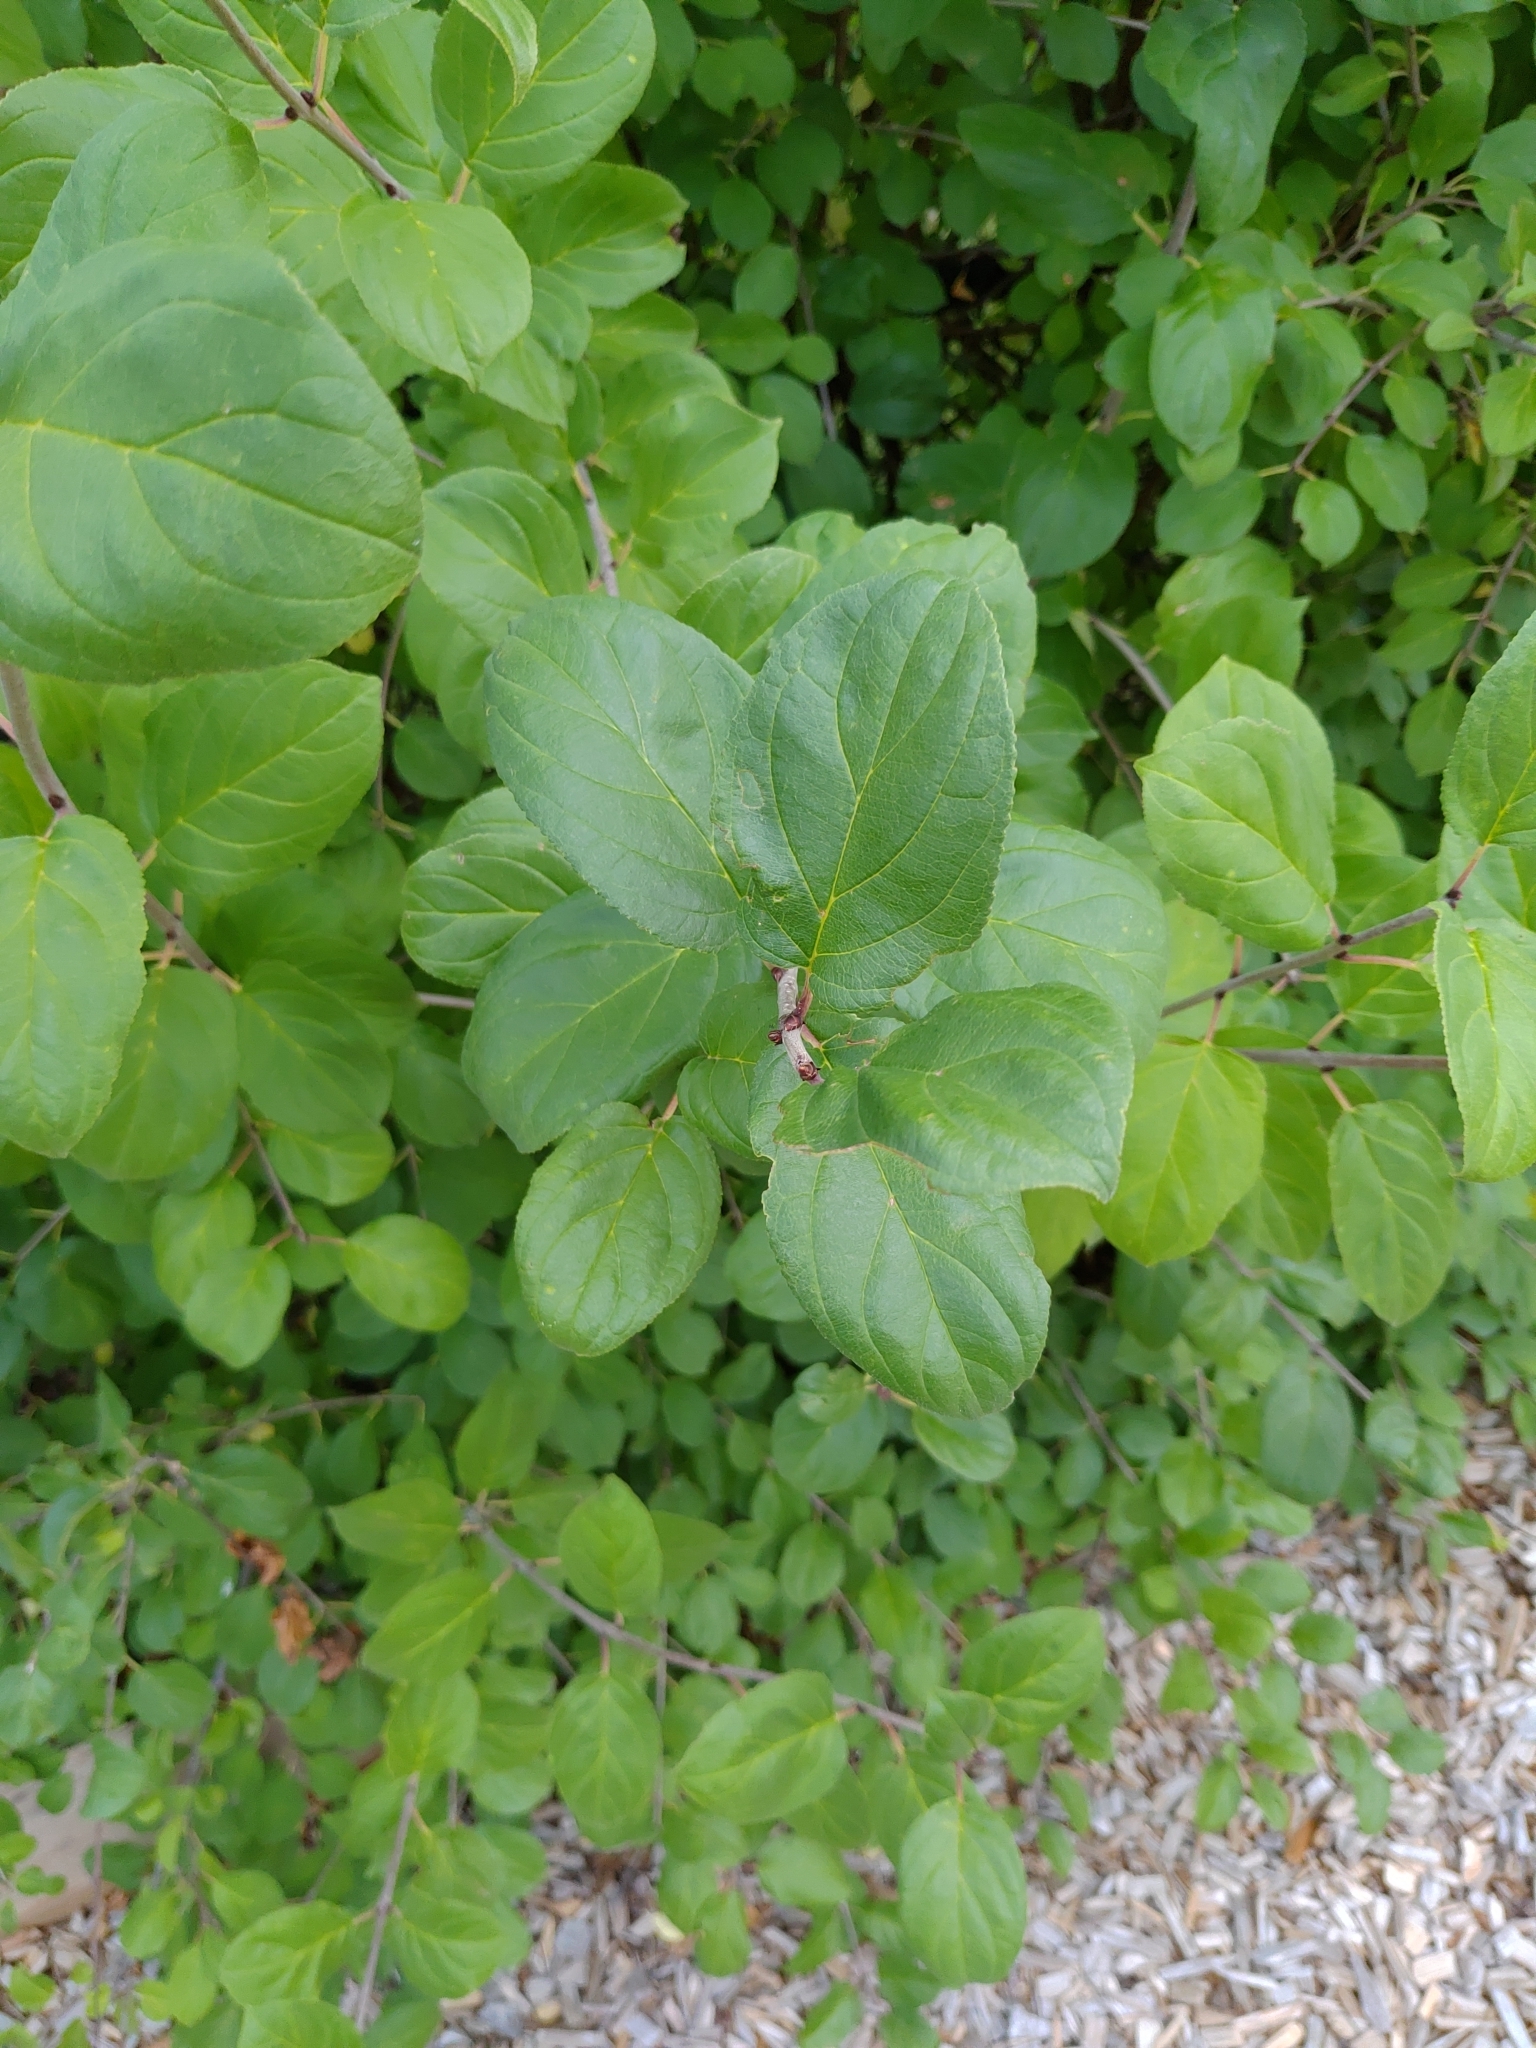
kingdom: Plantae
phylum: Tracheophyta
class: Magnoliopsida
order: Rosales
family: Rhamnaceae
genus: Rhamnus
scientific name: Rhamnus cathartica
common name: Common buckthorn
